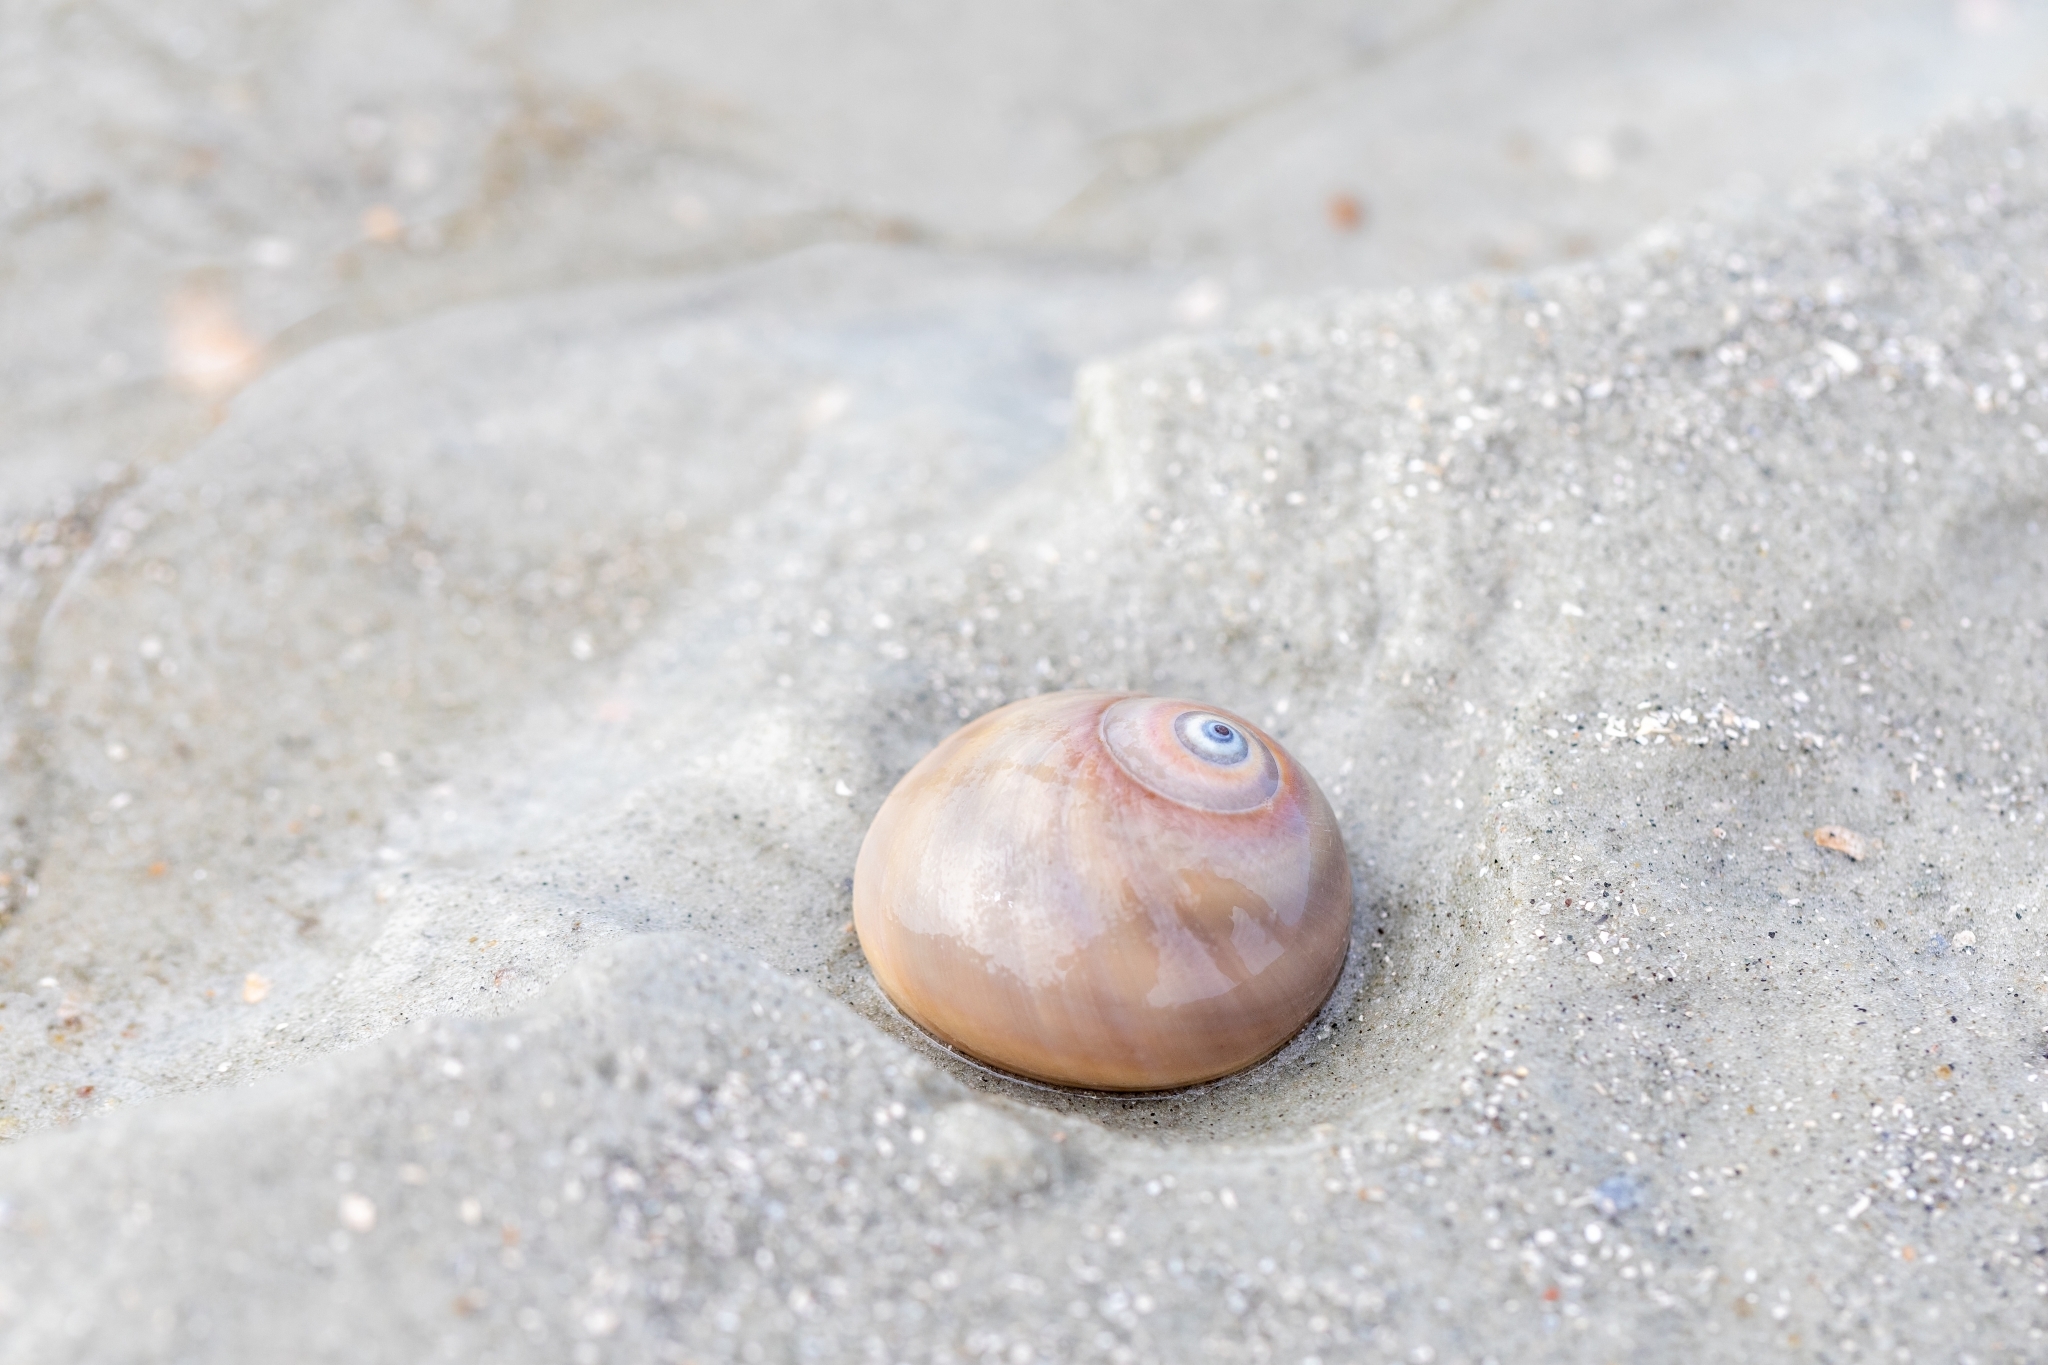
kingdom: Animalia
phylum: Arthropoda
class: Malacostraca
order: Decapoda
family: Paguridae
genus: Pagurus
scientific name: Pagurus longicarpus
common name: Long-armed hermit crab
